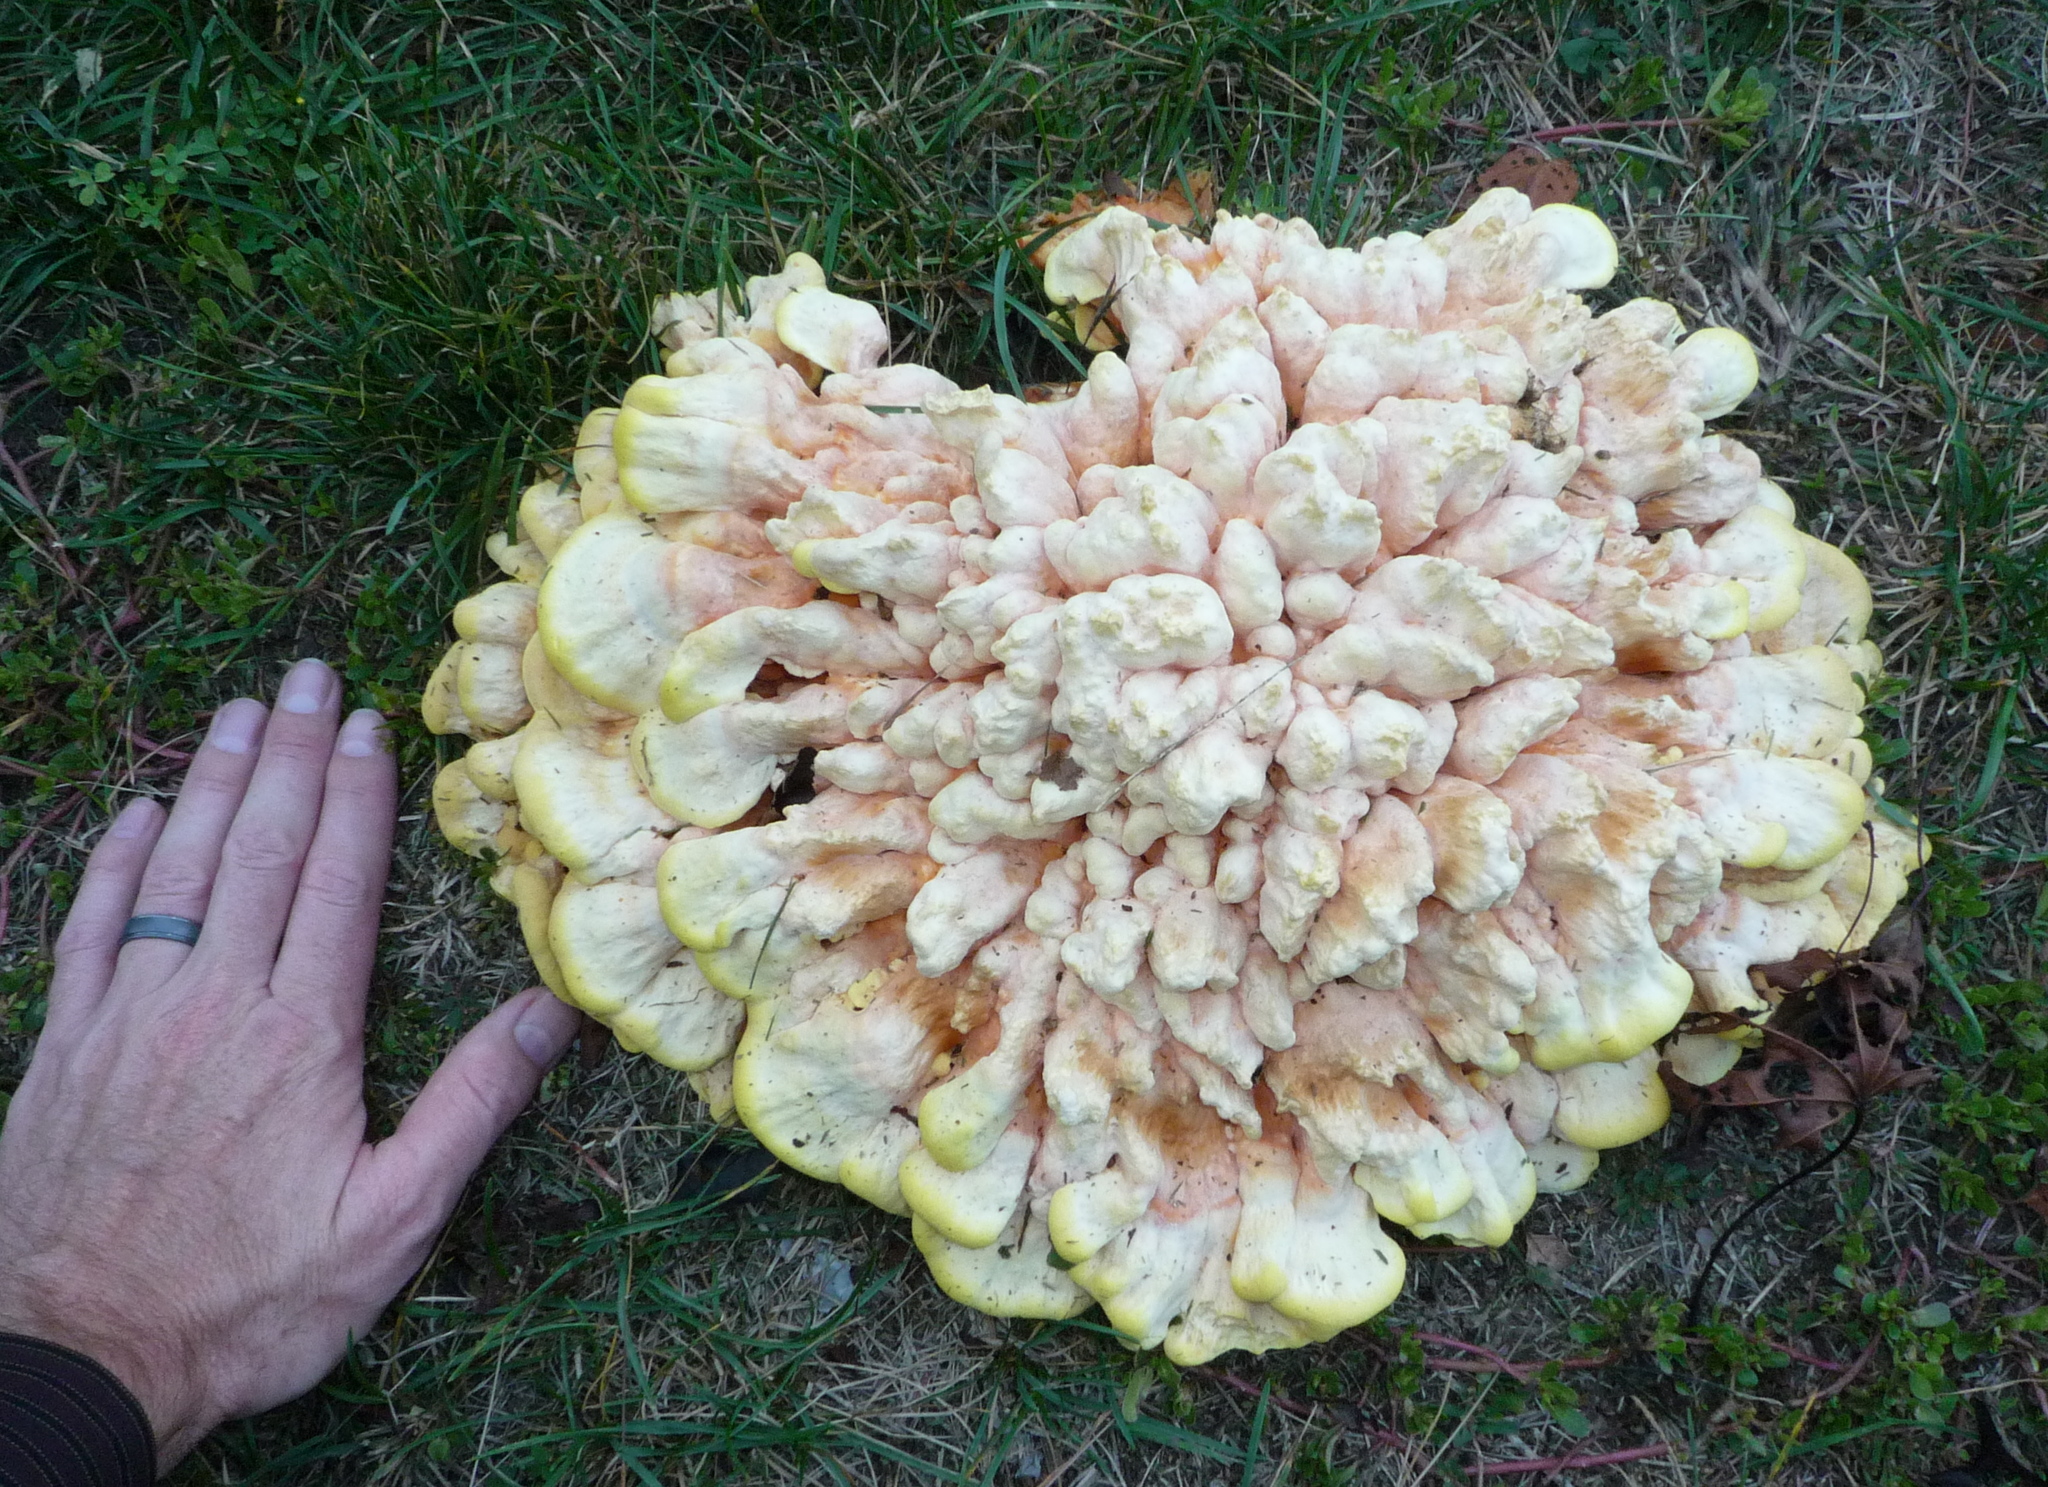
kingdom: Fungi
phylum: Basidiomycota
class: Agaricomycetes
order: Polyporales
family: Laetiporaceae
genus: Laetiporus
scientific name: Laetiporus sulphureus
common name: Chicken of the woods
